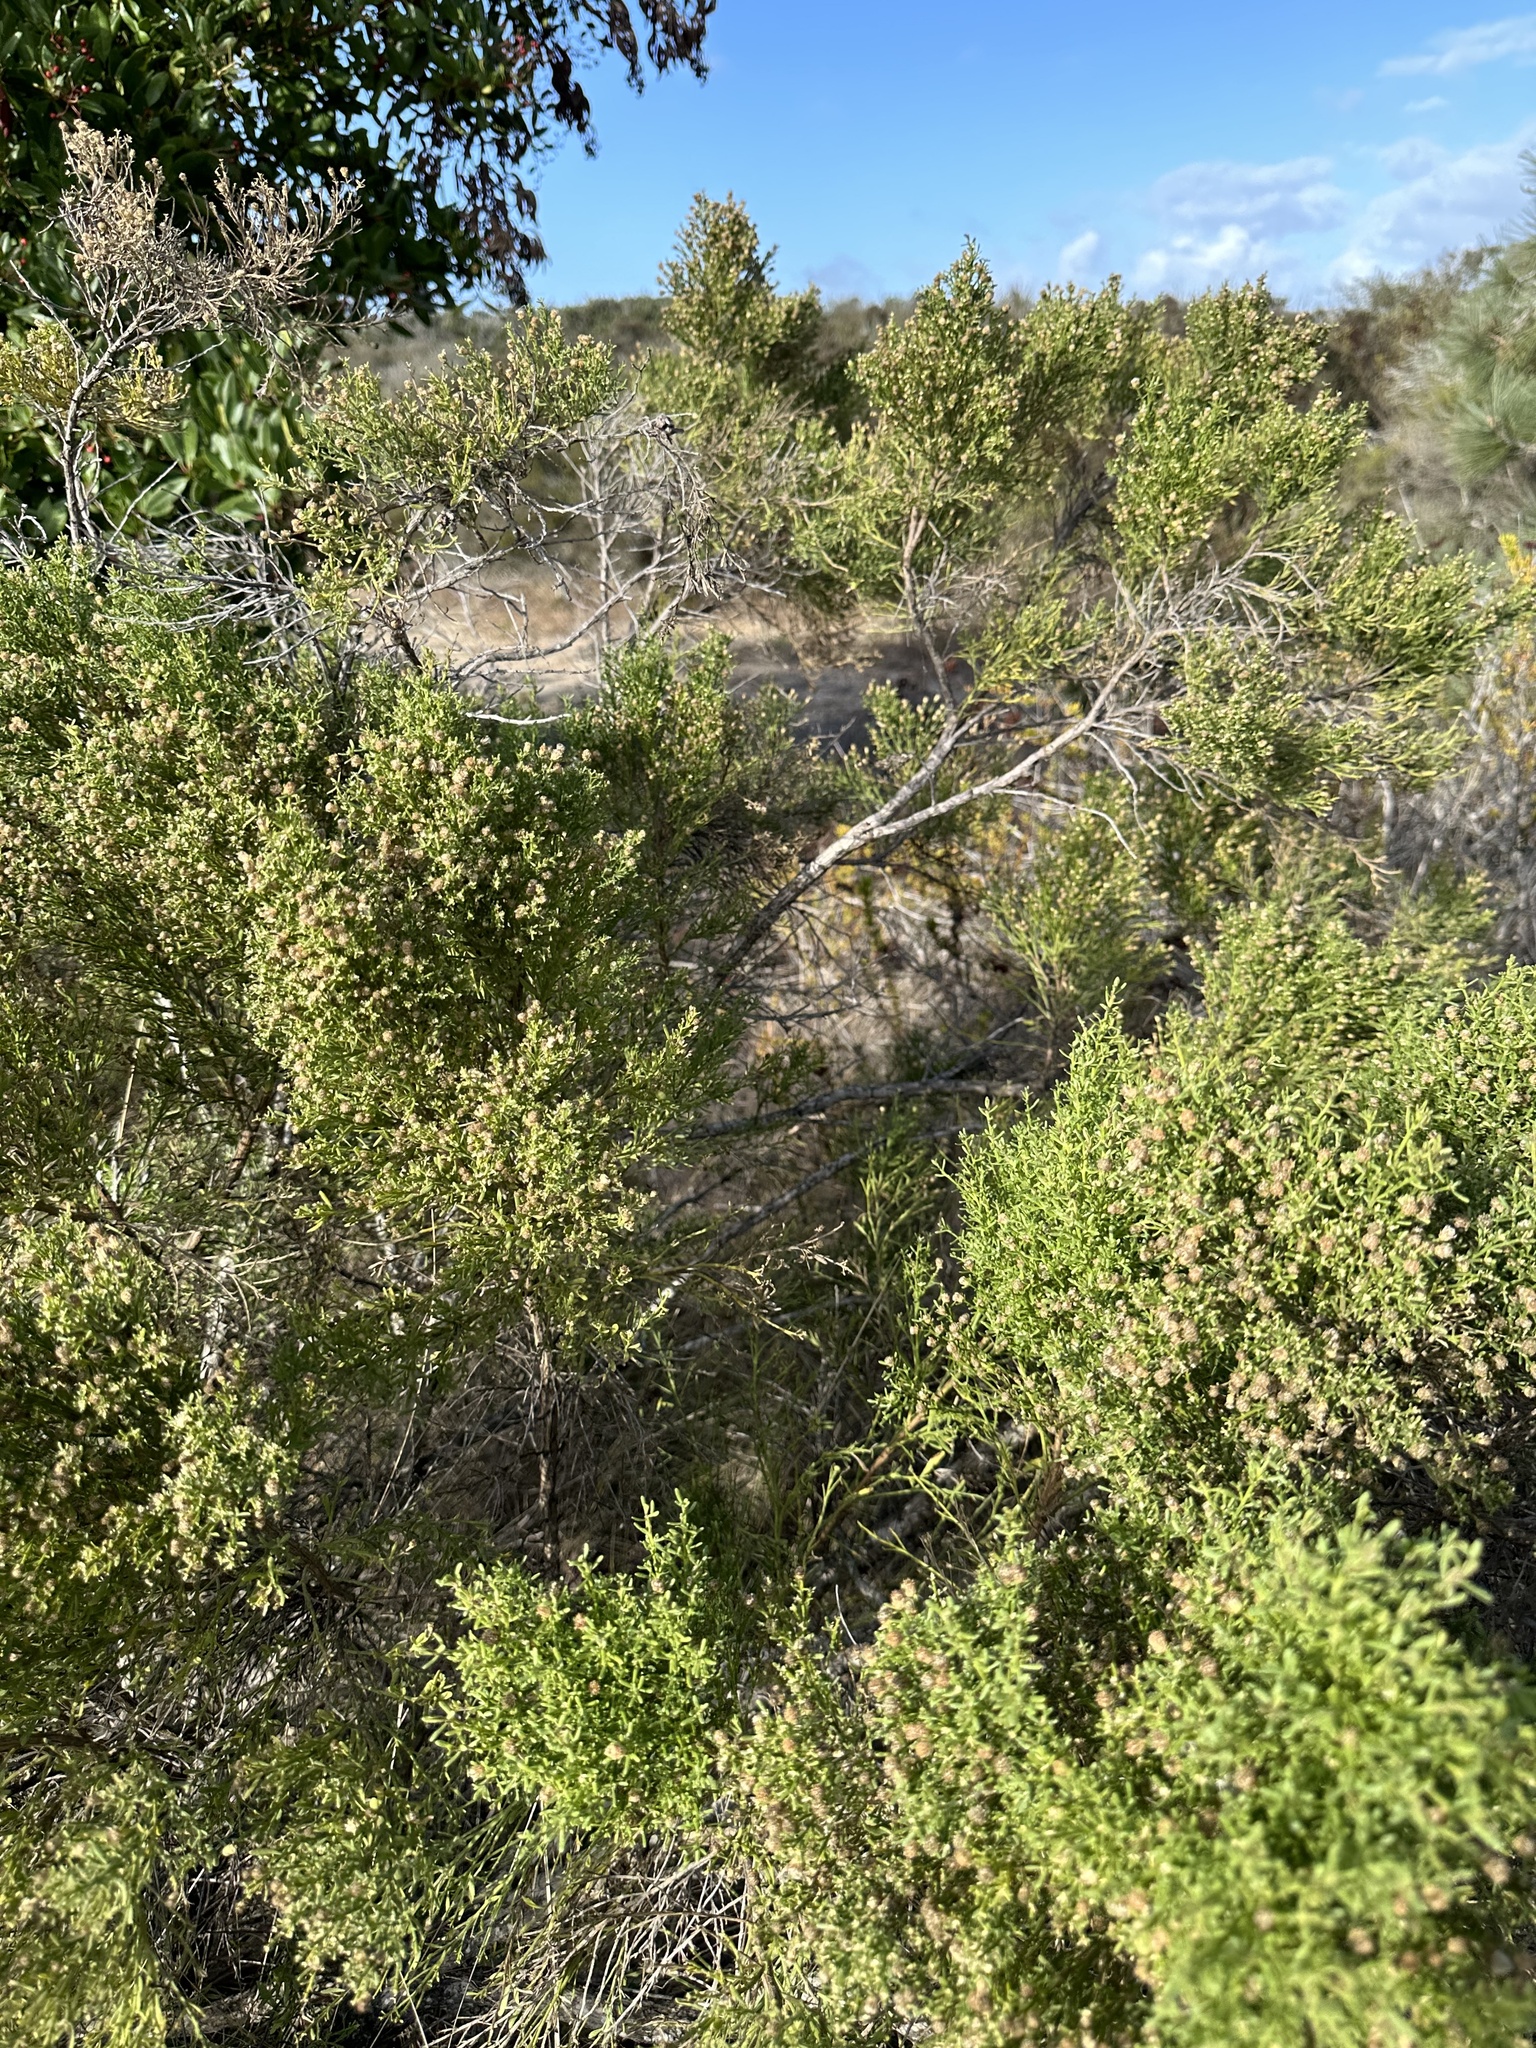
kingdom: Plantae
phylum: Tracheophyta
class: Magnoliopsida
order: Asterales
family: Asteraceae
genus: Baccharis
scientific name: Baccharis pilularis
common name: Coyotebrush
